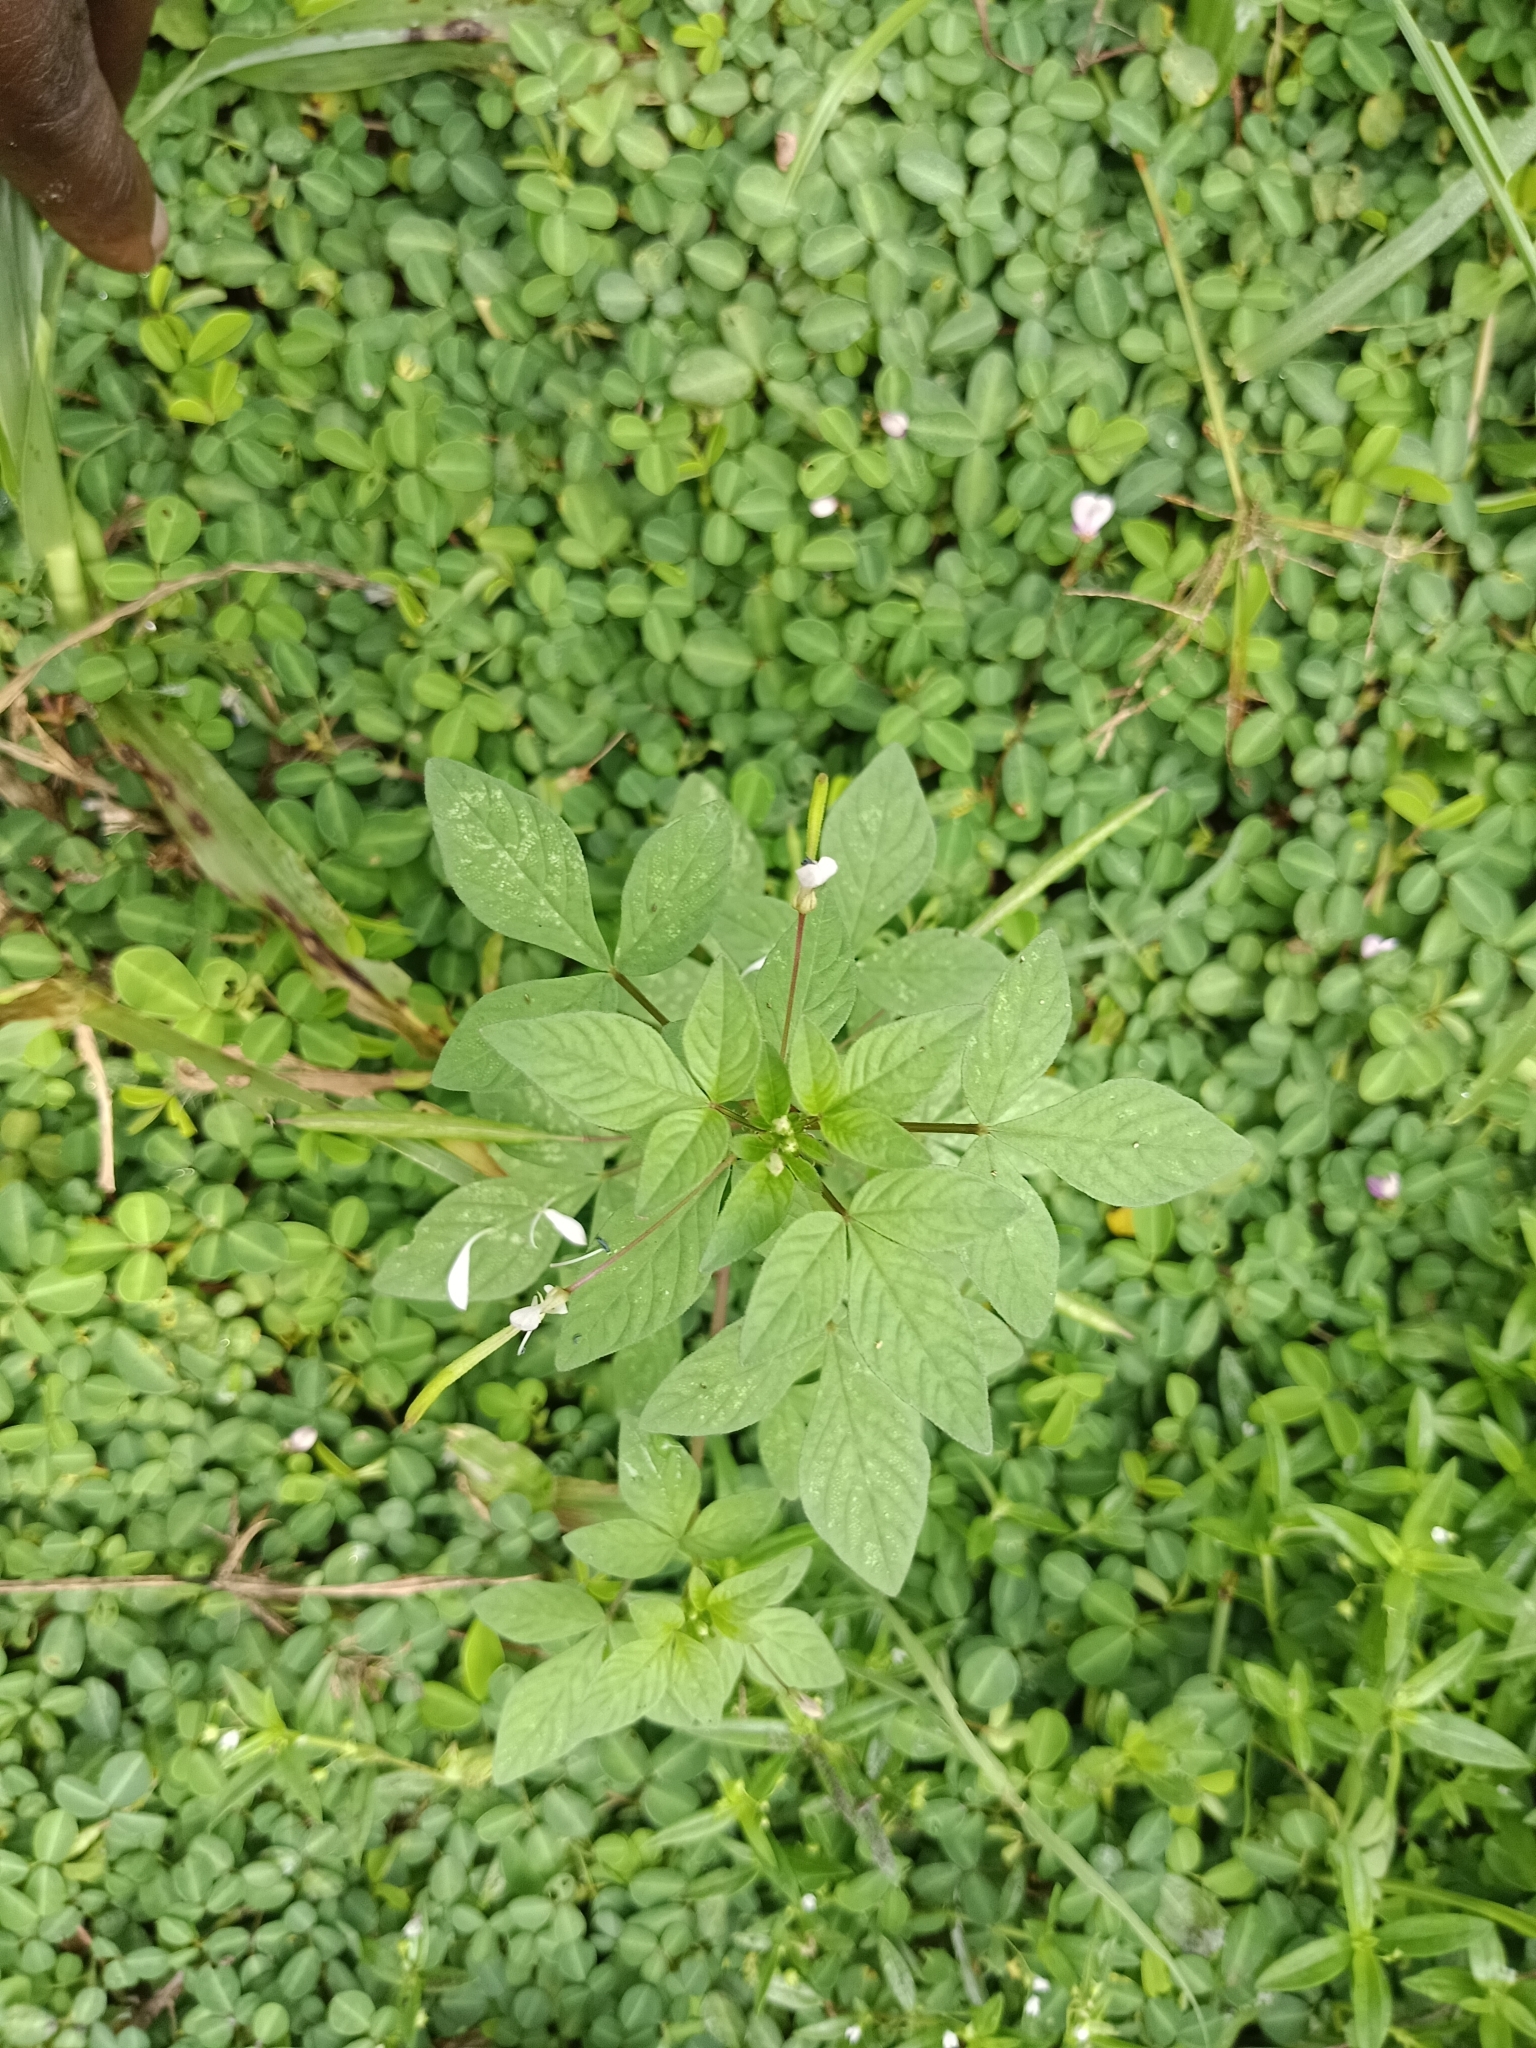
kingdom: Plantae
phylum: Tracheophyta
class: Magnoliopsida
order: Brassicales
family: Cleomaceae
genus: Sieruela
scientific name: Sieruela rutidosperma
